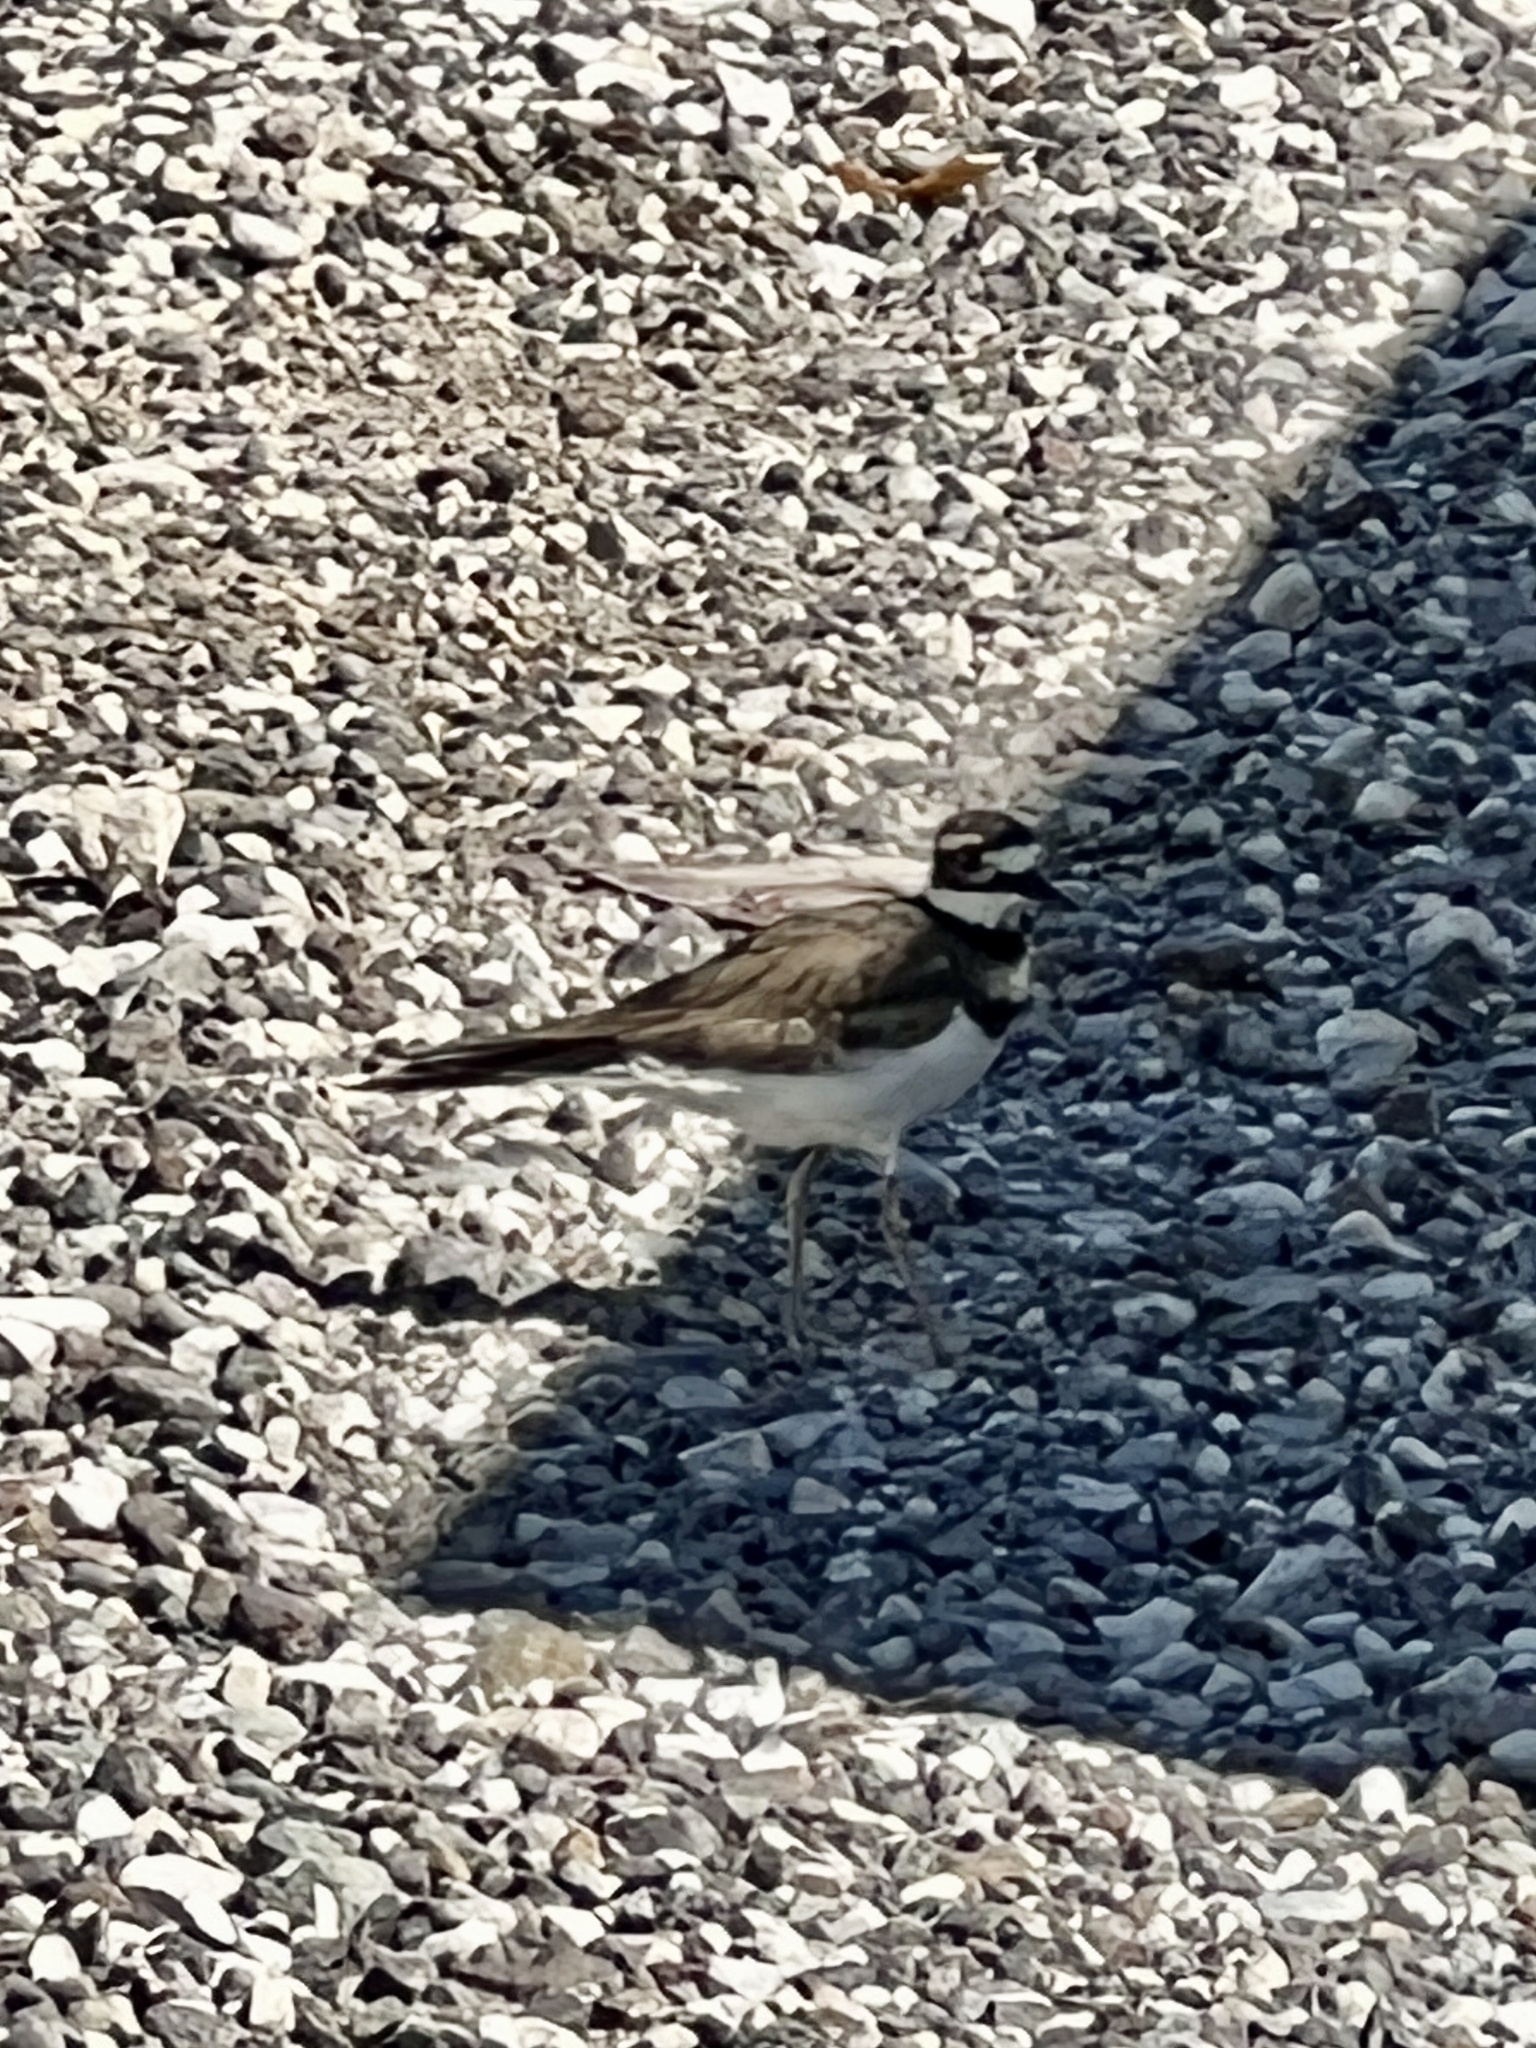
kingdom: Animalia
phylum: Chordata
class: Aves
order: Charadriiformes
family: Charadriidae
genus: Charadrius
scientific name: Charadrius vociferus
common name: Killdeer
